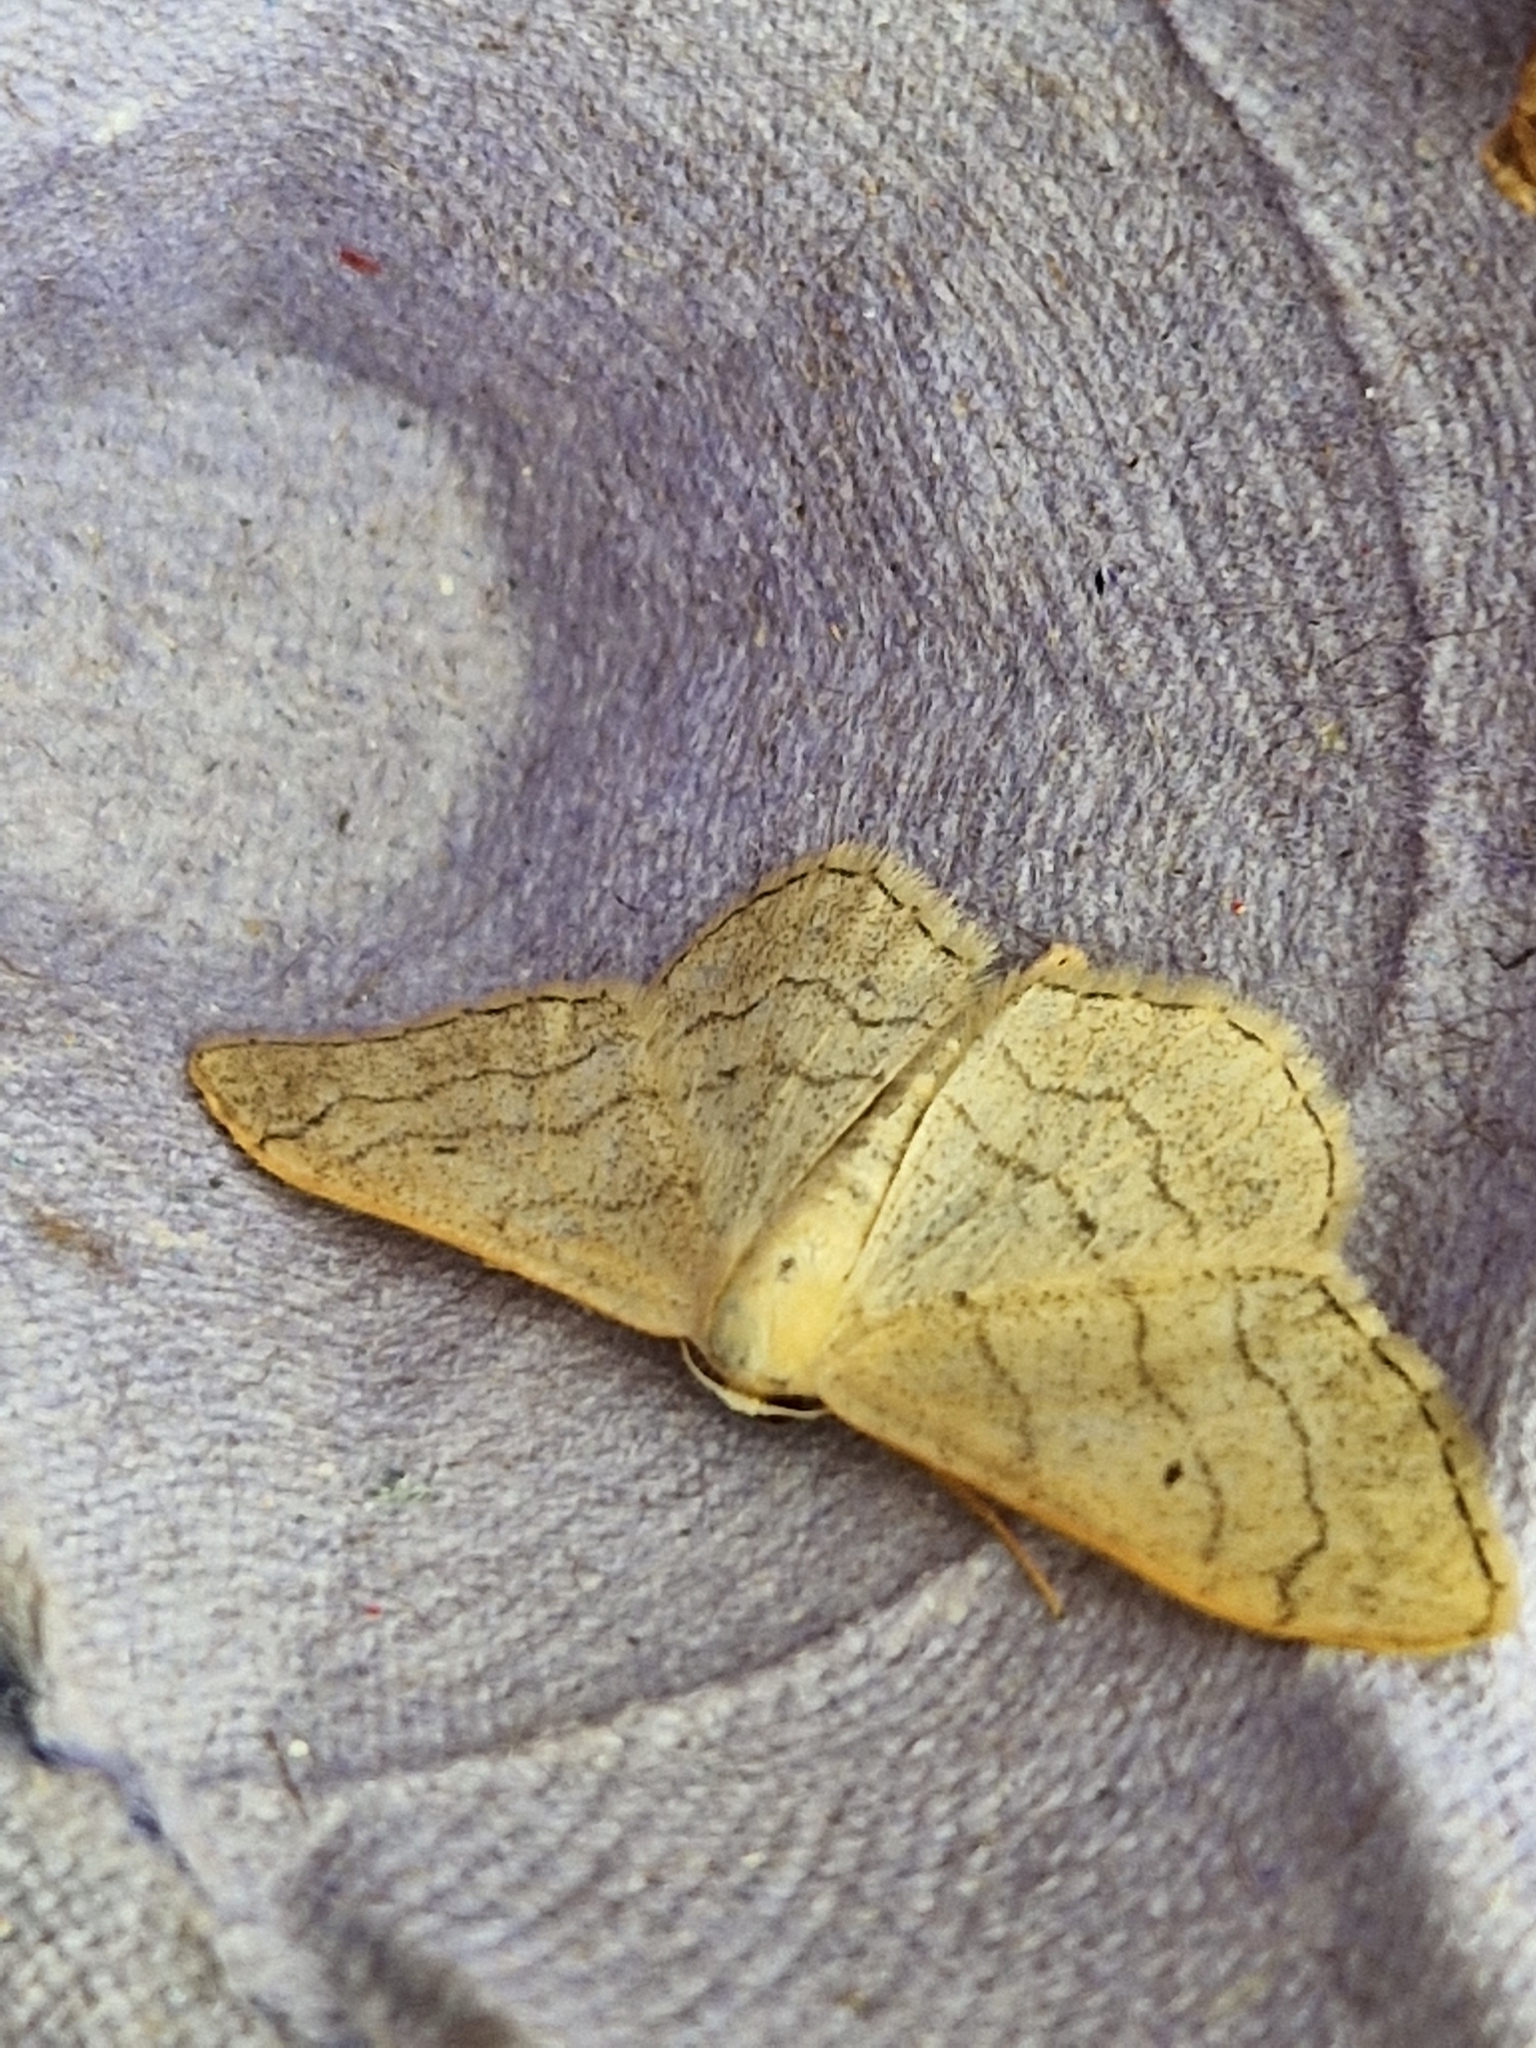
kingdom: Animalia
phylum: Arthropoda
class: Insecta
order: Lepidoptera
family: Geometridae
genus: Idaea
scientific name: Idaea aversata
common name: Riband wave
